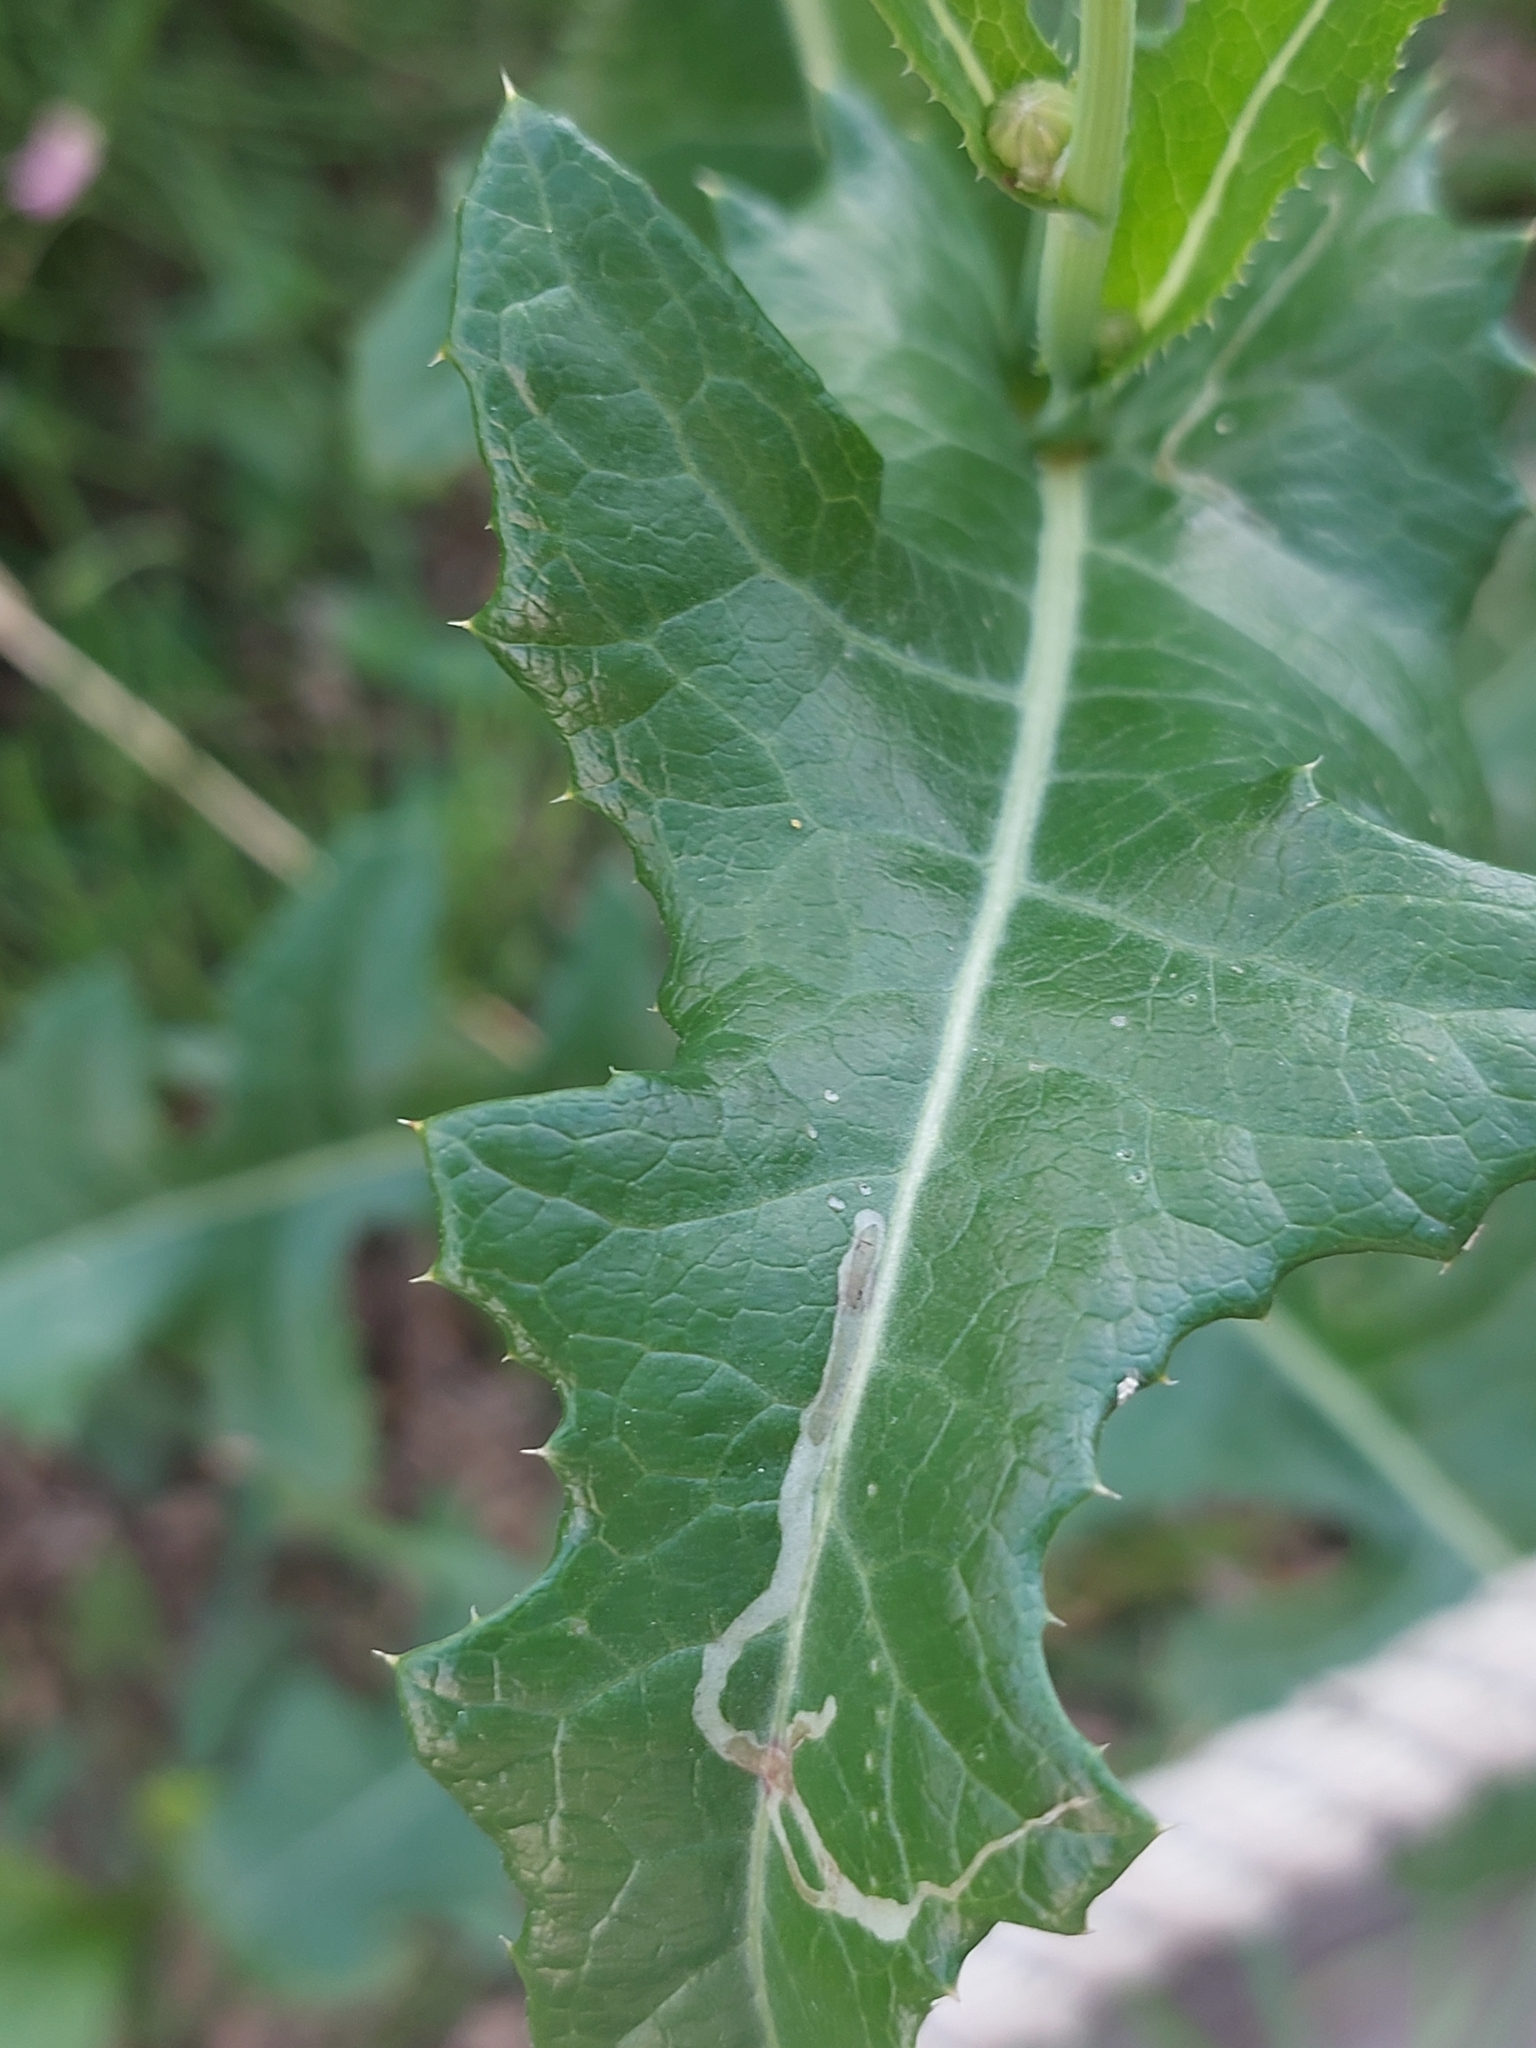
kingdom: Plantae
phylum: Tracheophyta
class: Magnoliopsida
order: Asterales
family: Asteraceae
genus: Sonchus
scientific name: Sonchus arvensis
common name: Perennial sow-thistle
